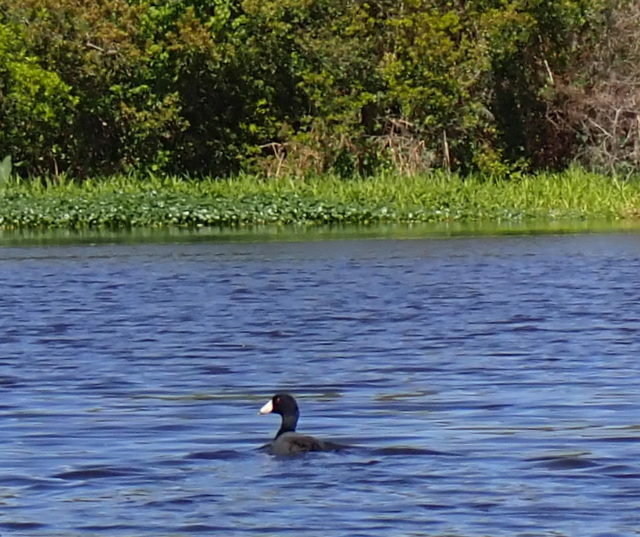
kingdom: Animalia
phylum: Chordata
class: Aves
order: Gruiformes
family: Rallidae
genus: Fulica
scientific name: Fulica americana
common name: American coot
